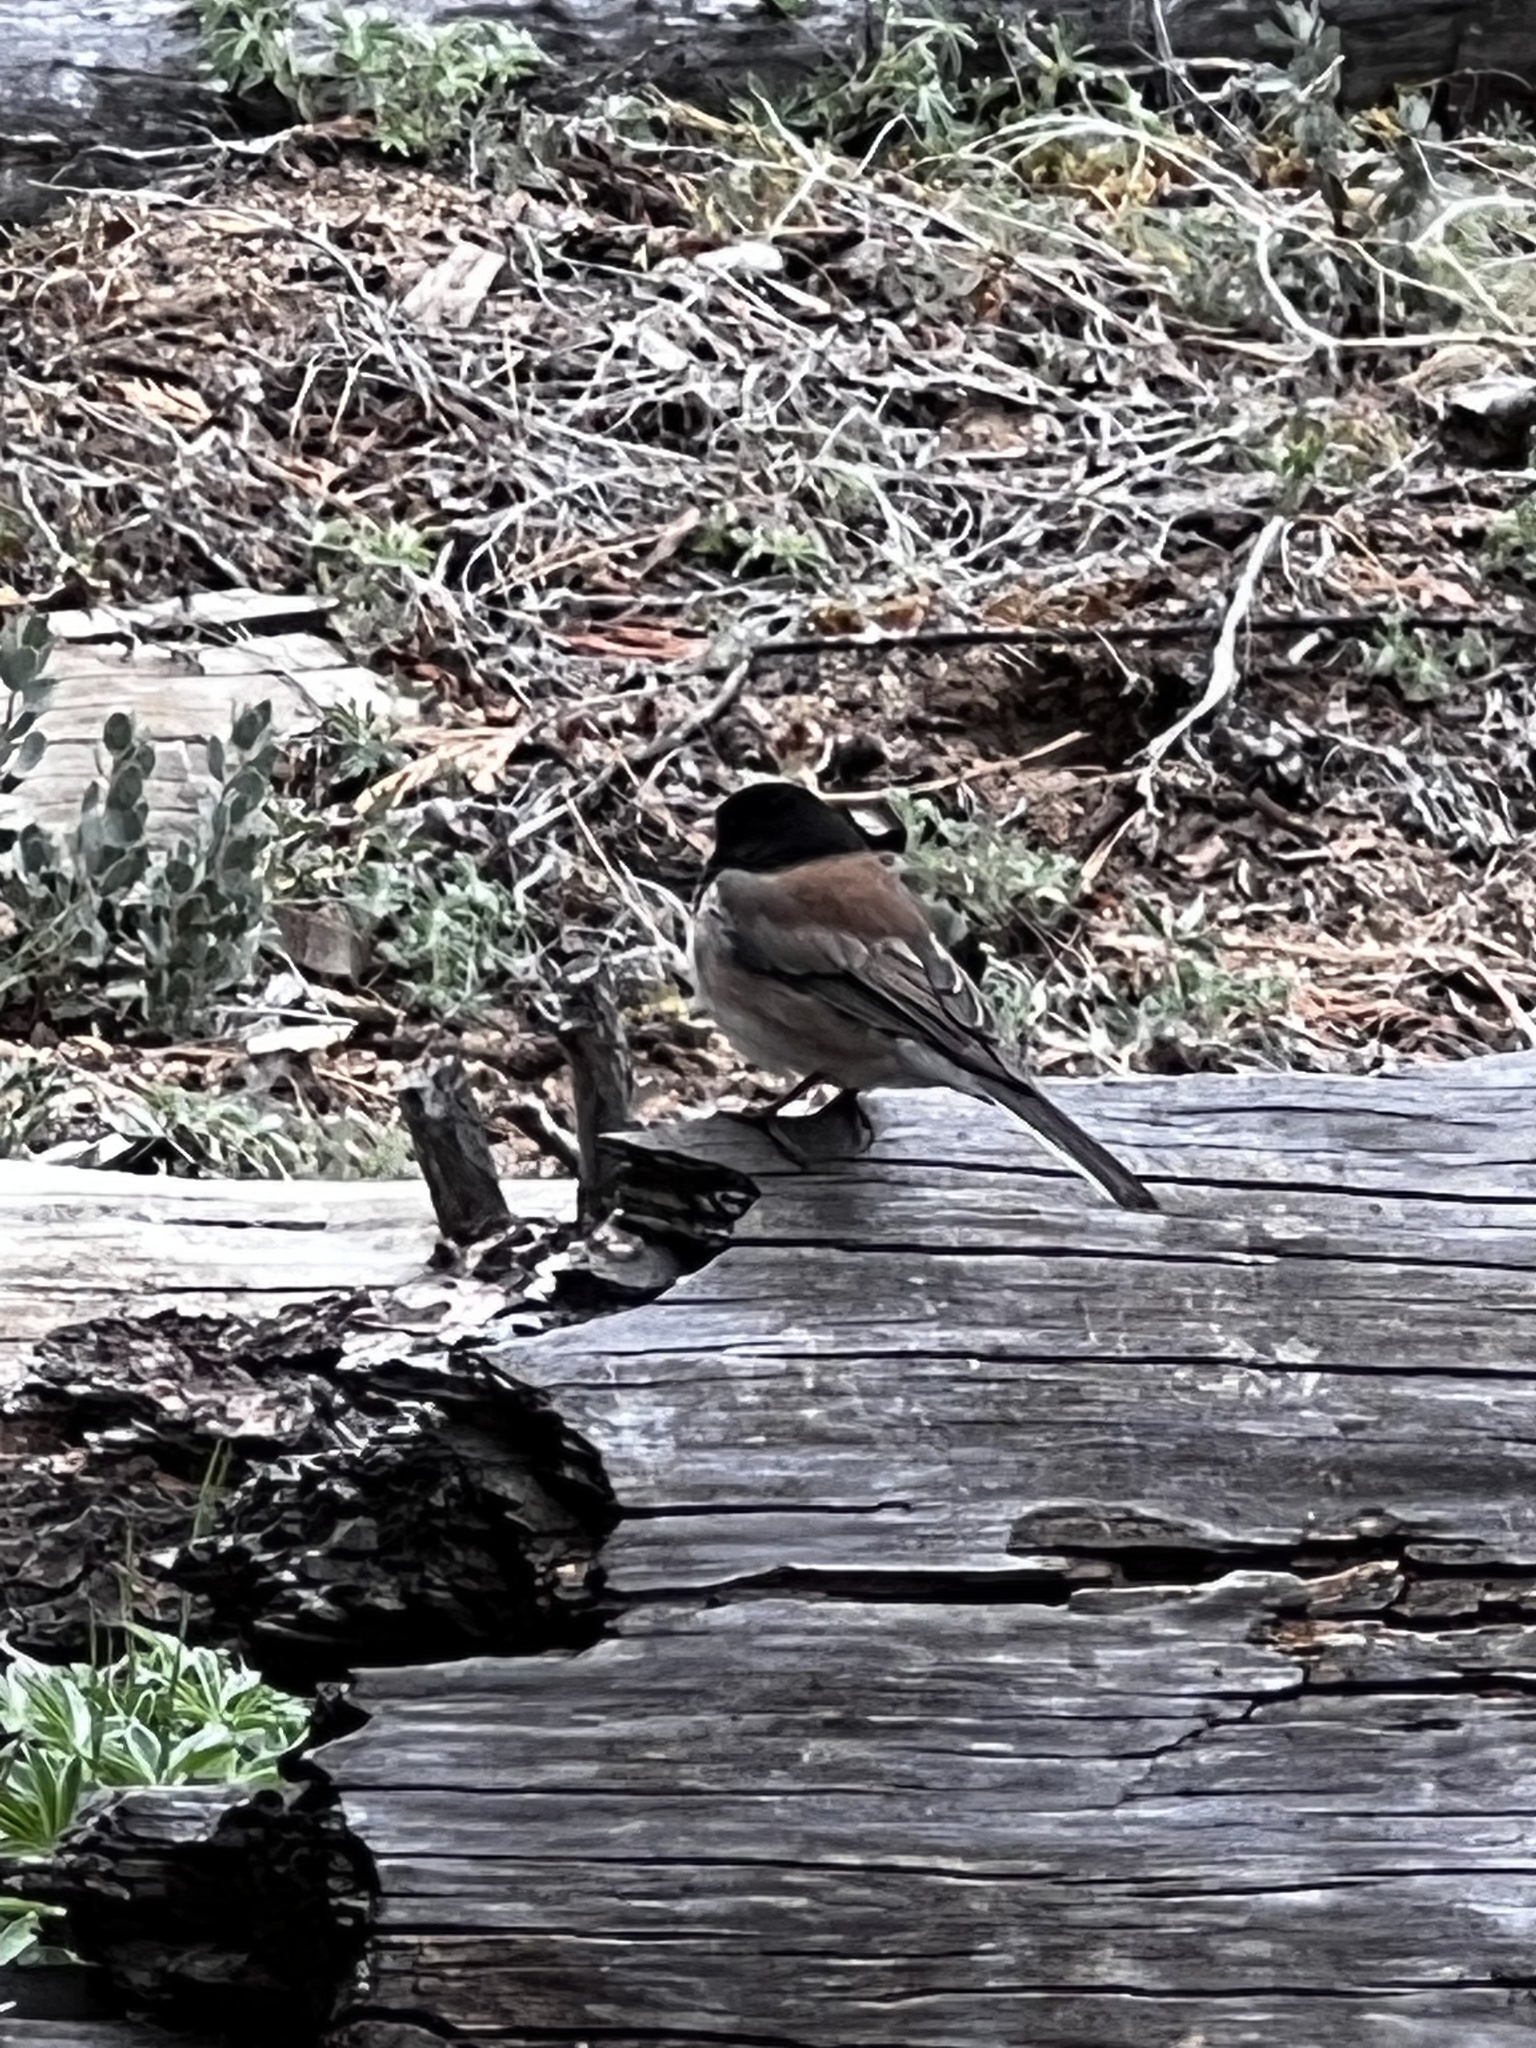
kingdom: Animalia
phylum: Chordata
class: Aves
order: Passeriformes
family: Passerellidae
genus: Junco
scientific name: Junco hyemalis
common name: Dark-eyed junco
